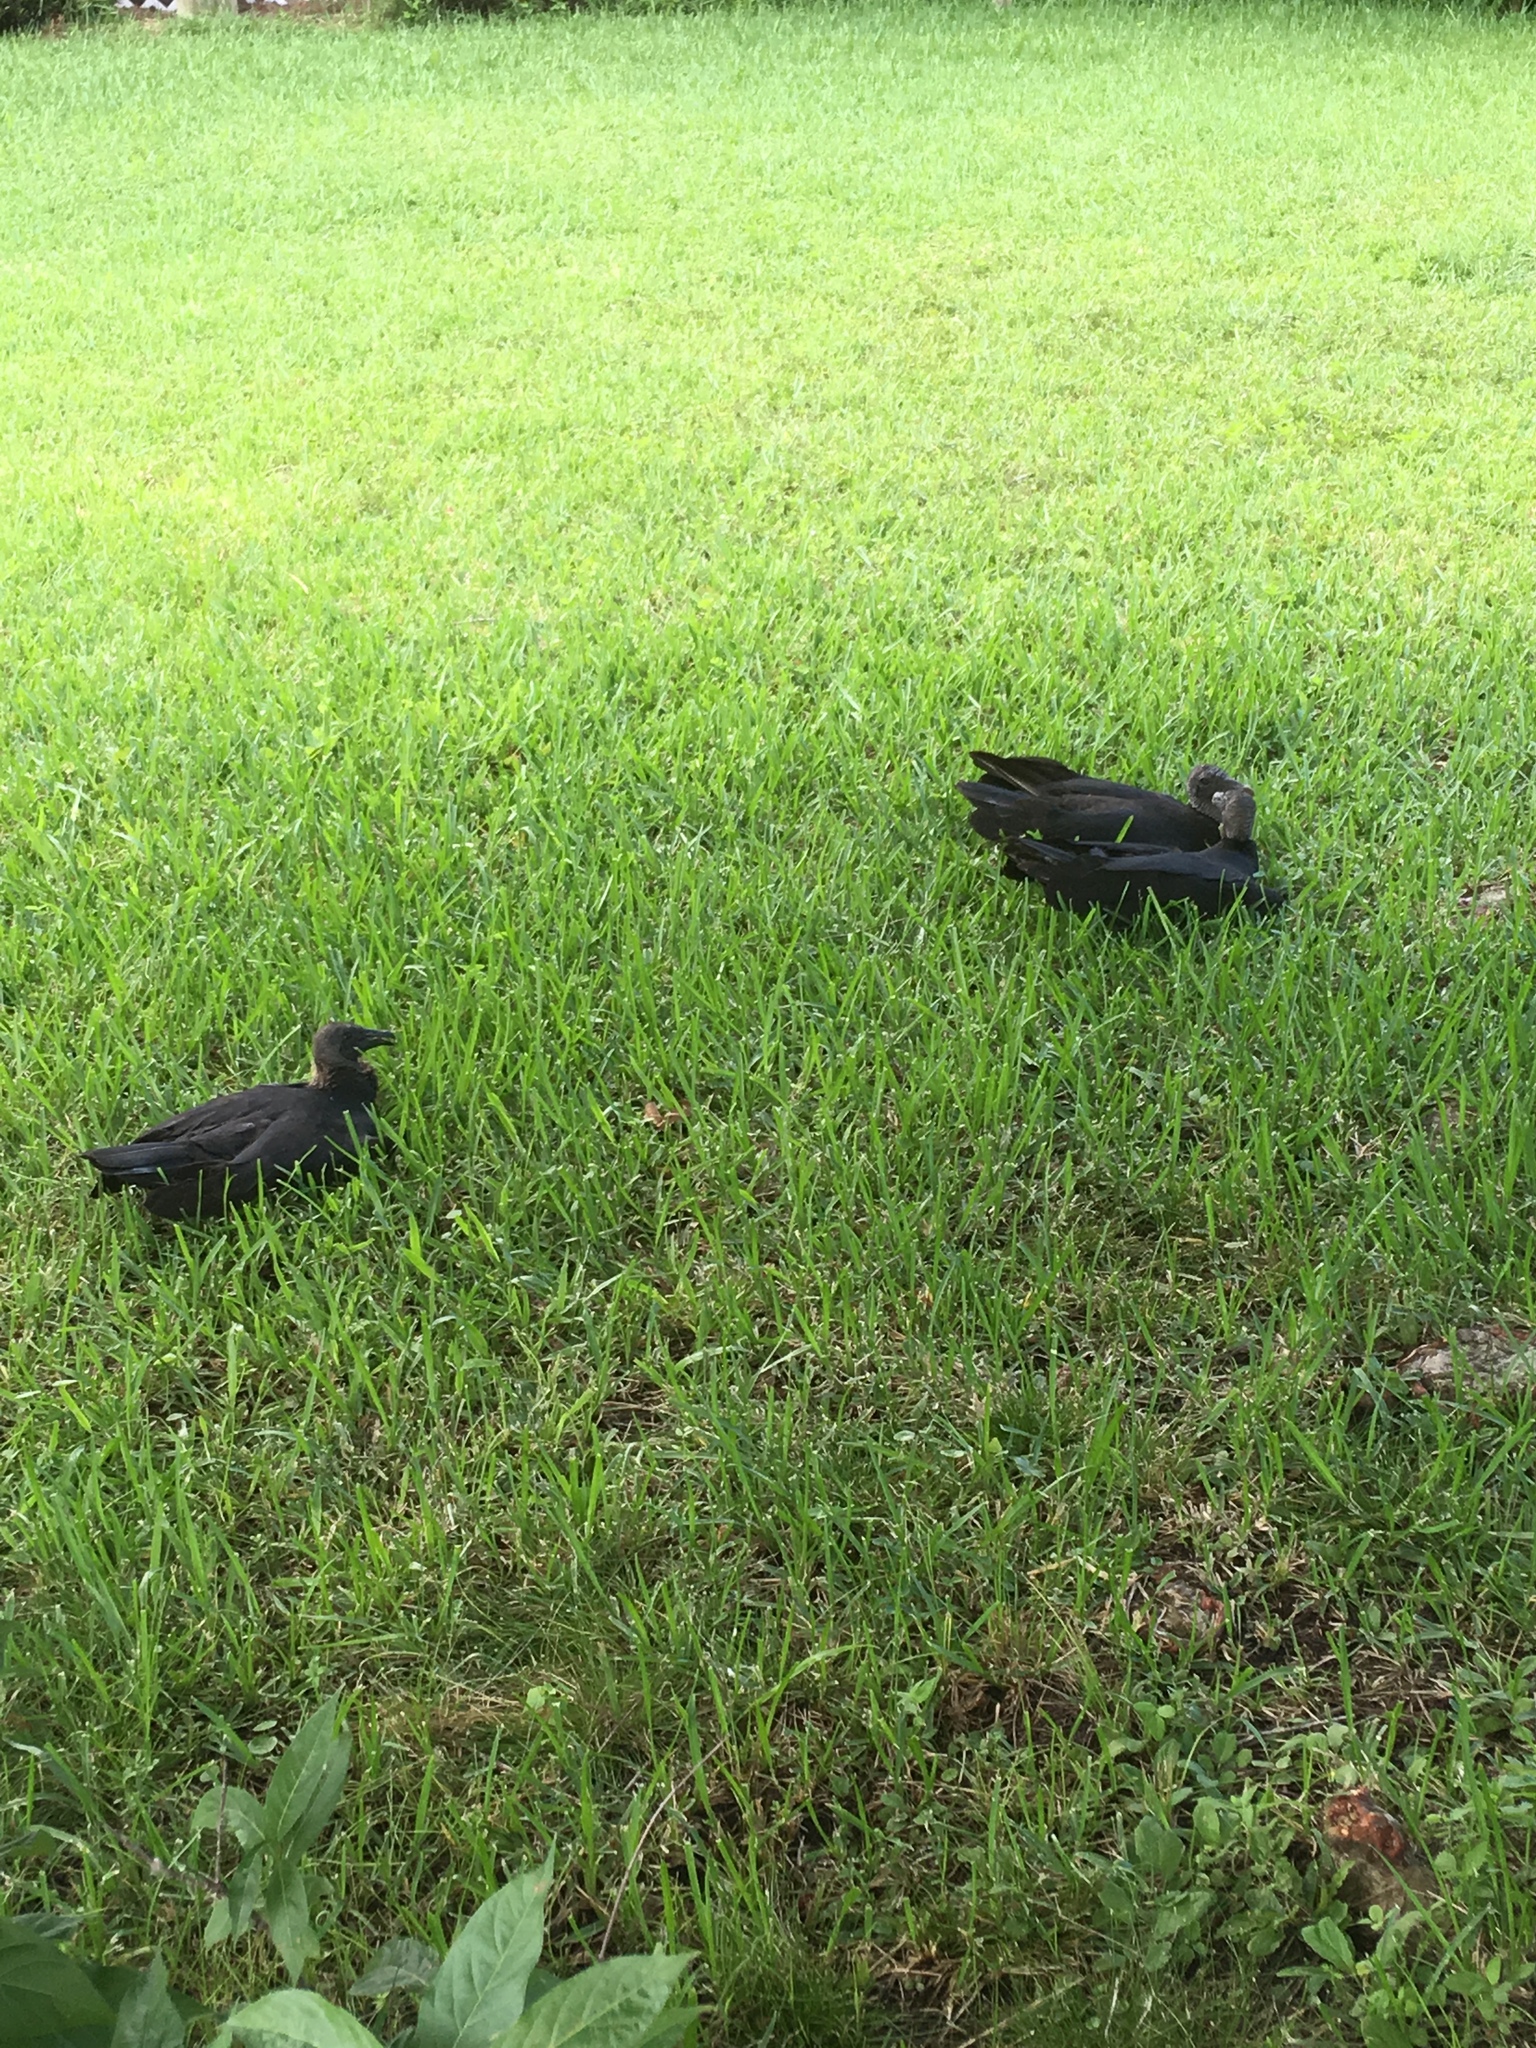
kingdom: Animalia
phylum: Chordata
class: Aves
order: Accipitriformes
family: Cathartidae
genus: Coragyps
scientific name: Coragyps atratus
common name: Black vulture
